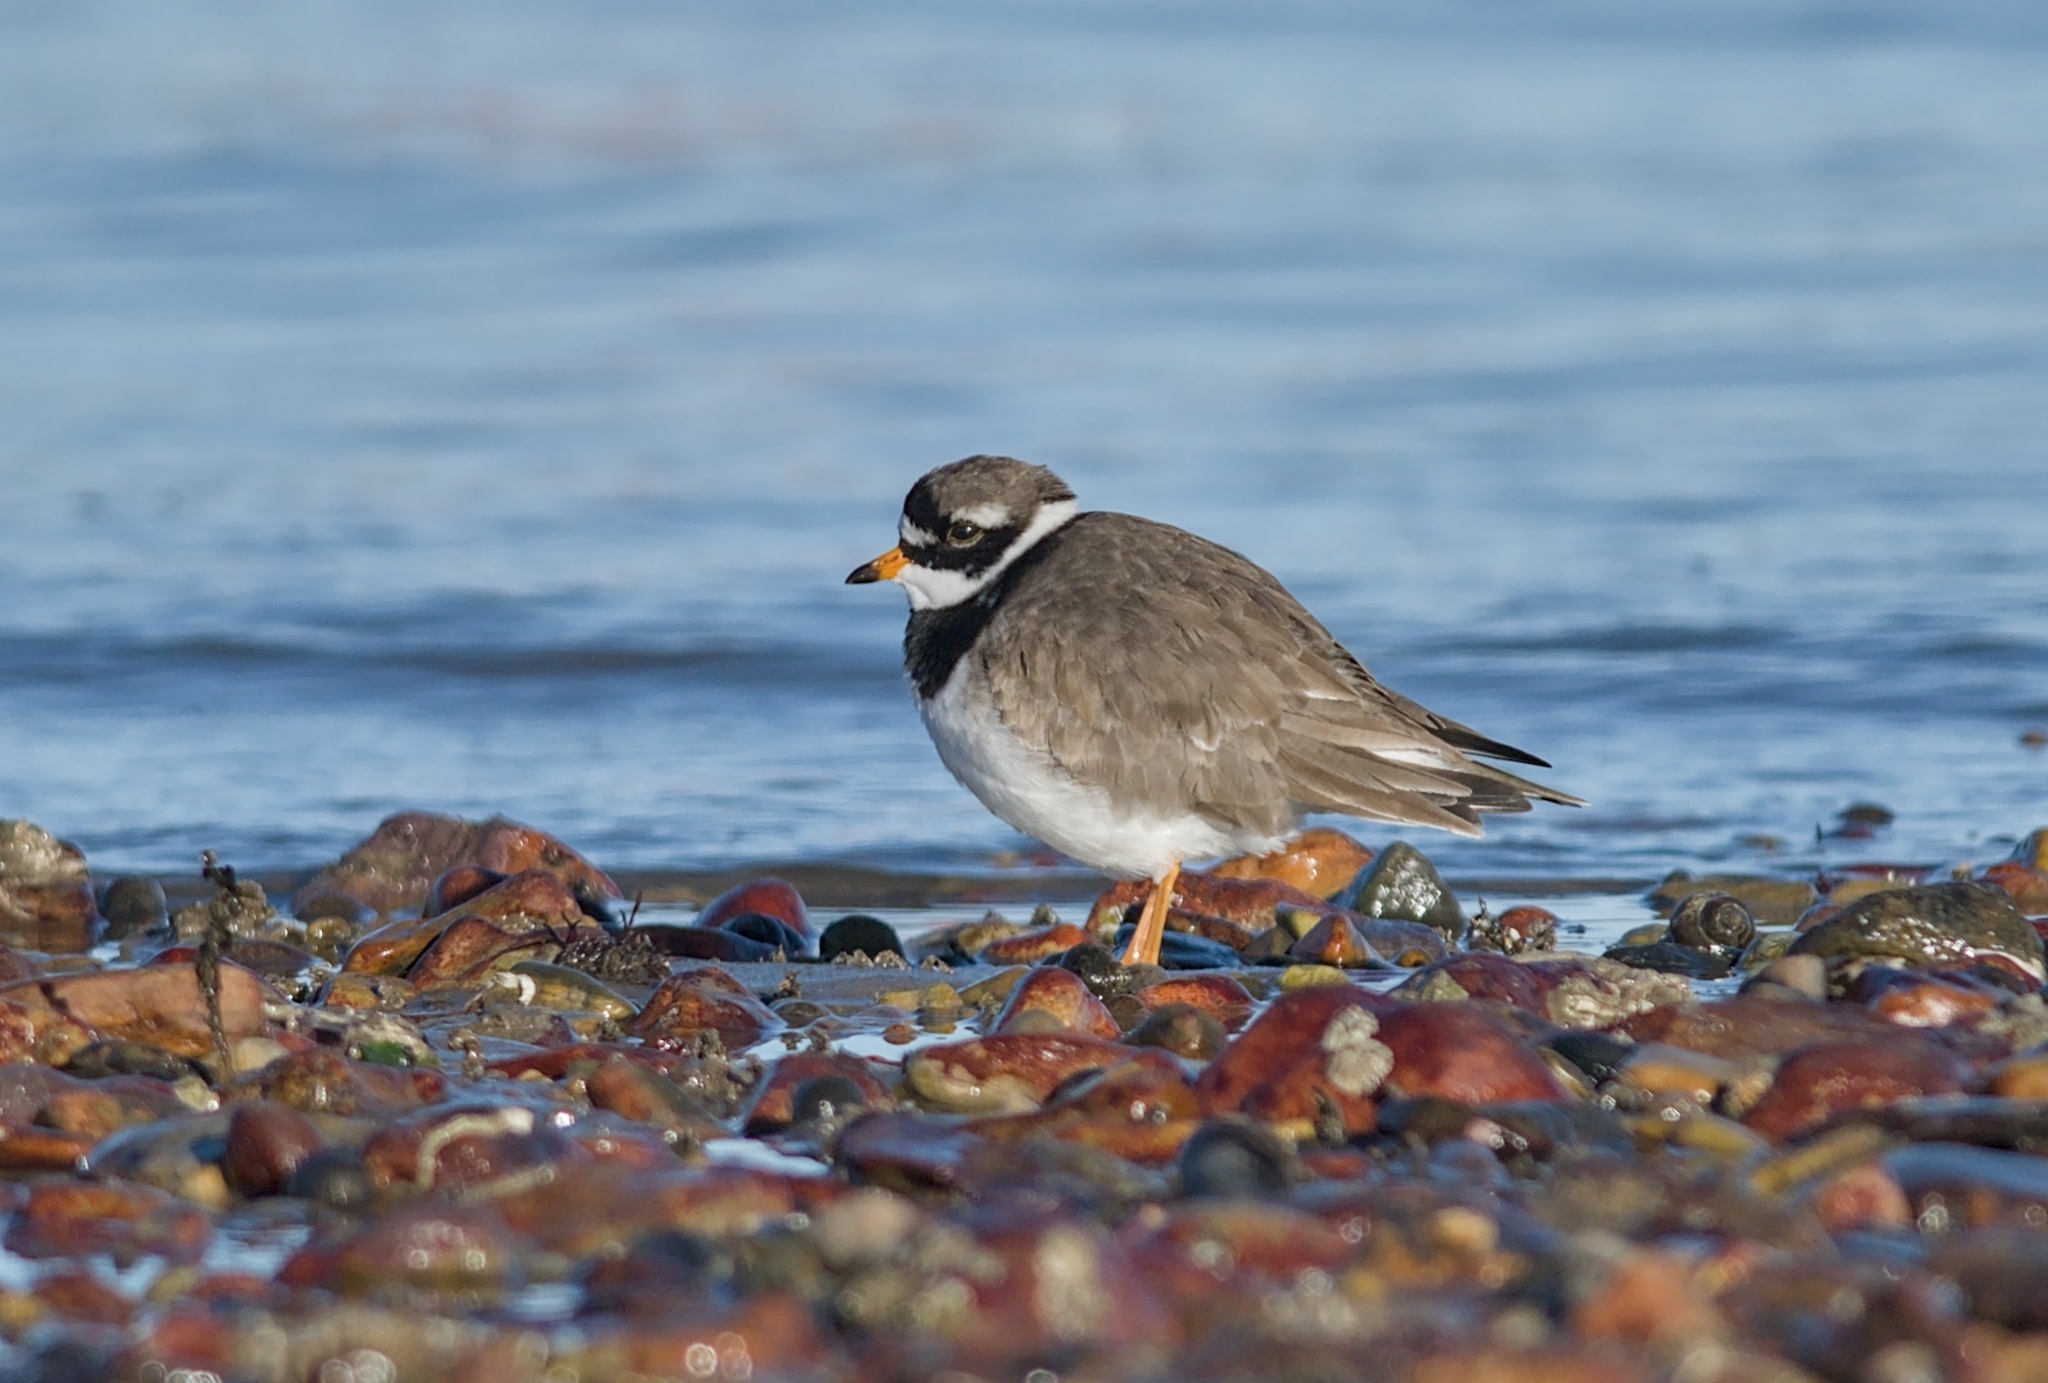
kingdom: Animalia
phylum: Chordata
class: Aves
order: Charadriiformes
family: Charadriidae
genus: Charadrius
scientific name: Charadrius hiaticula
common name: Common ringed plover
